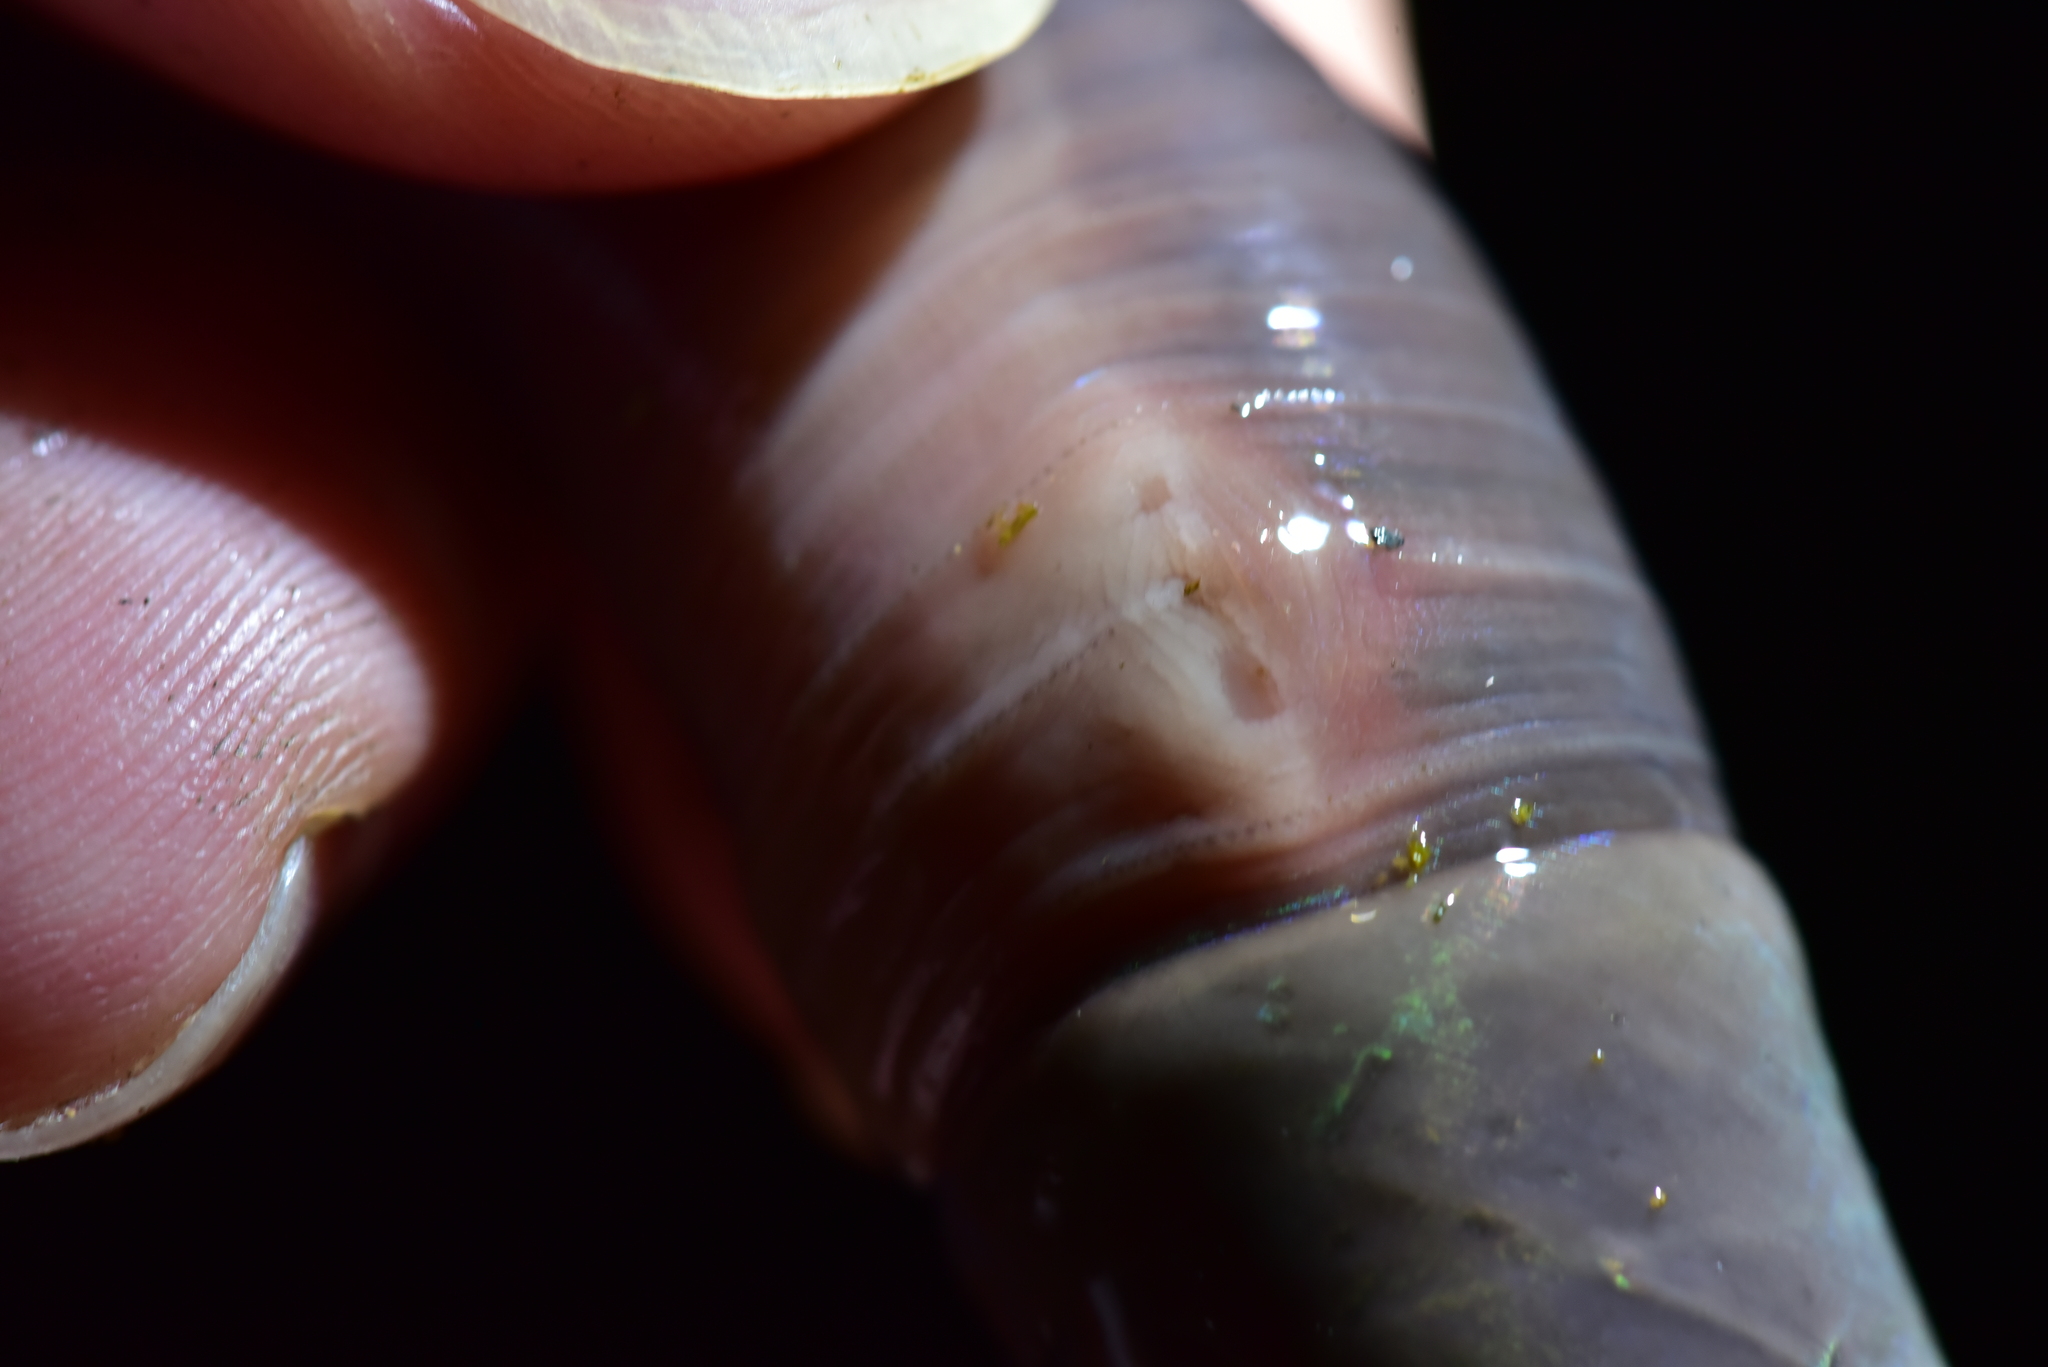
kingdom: Animalia
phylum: Annelida
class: Clitellata
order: Crassiclitellata
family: Megascolecidae
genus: Metaphire
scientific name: Metaphire taiwanensis
